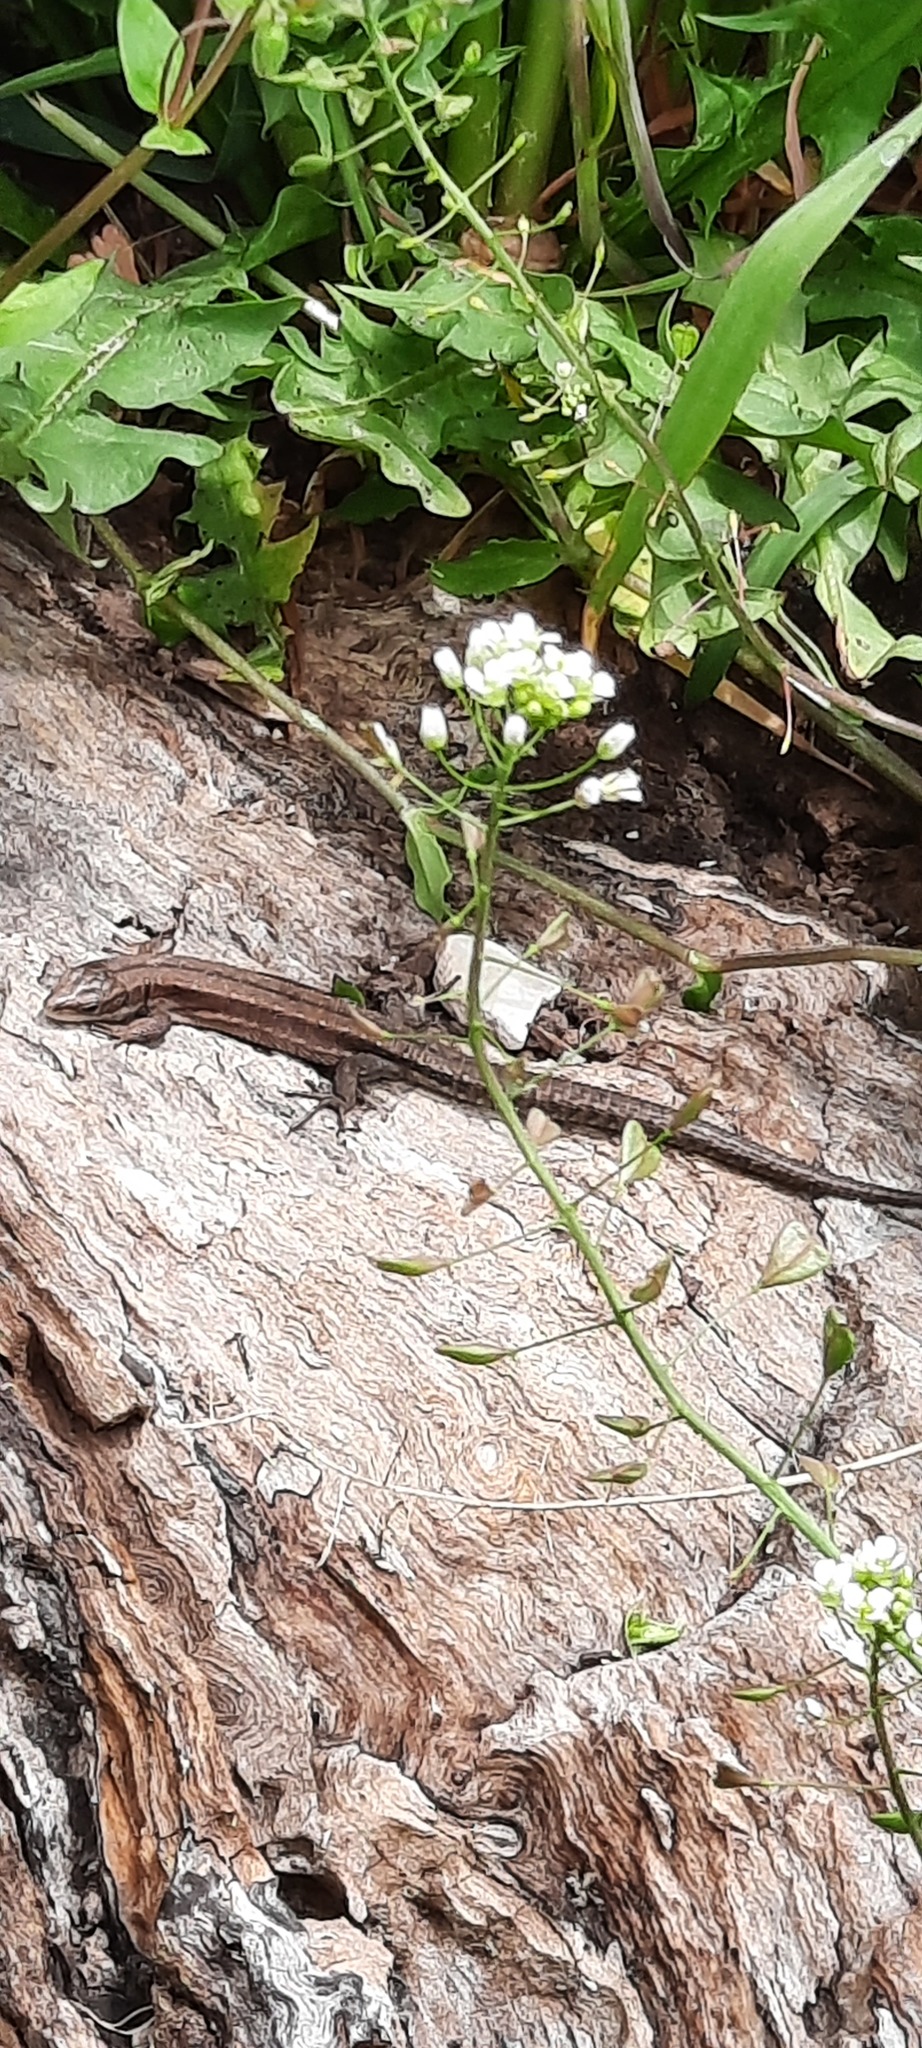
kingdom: Animalia
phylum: Chordata
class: Squamata
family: Lacertidae
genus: Zootoca
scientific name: Zootoca vivipara
